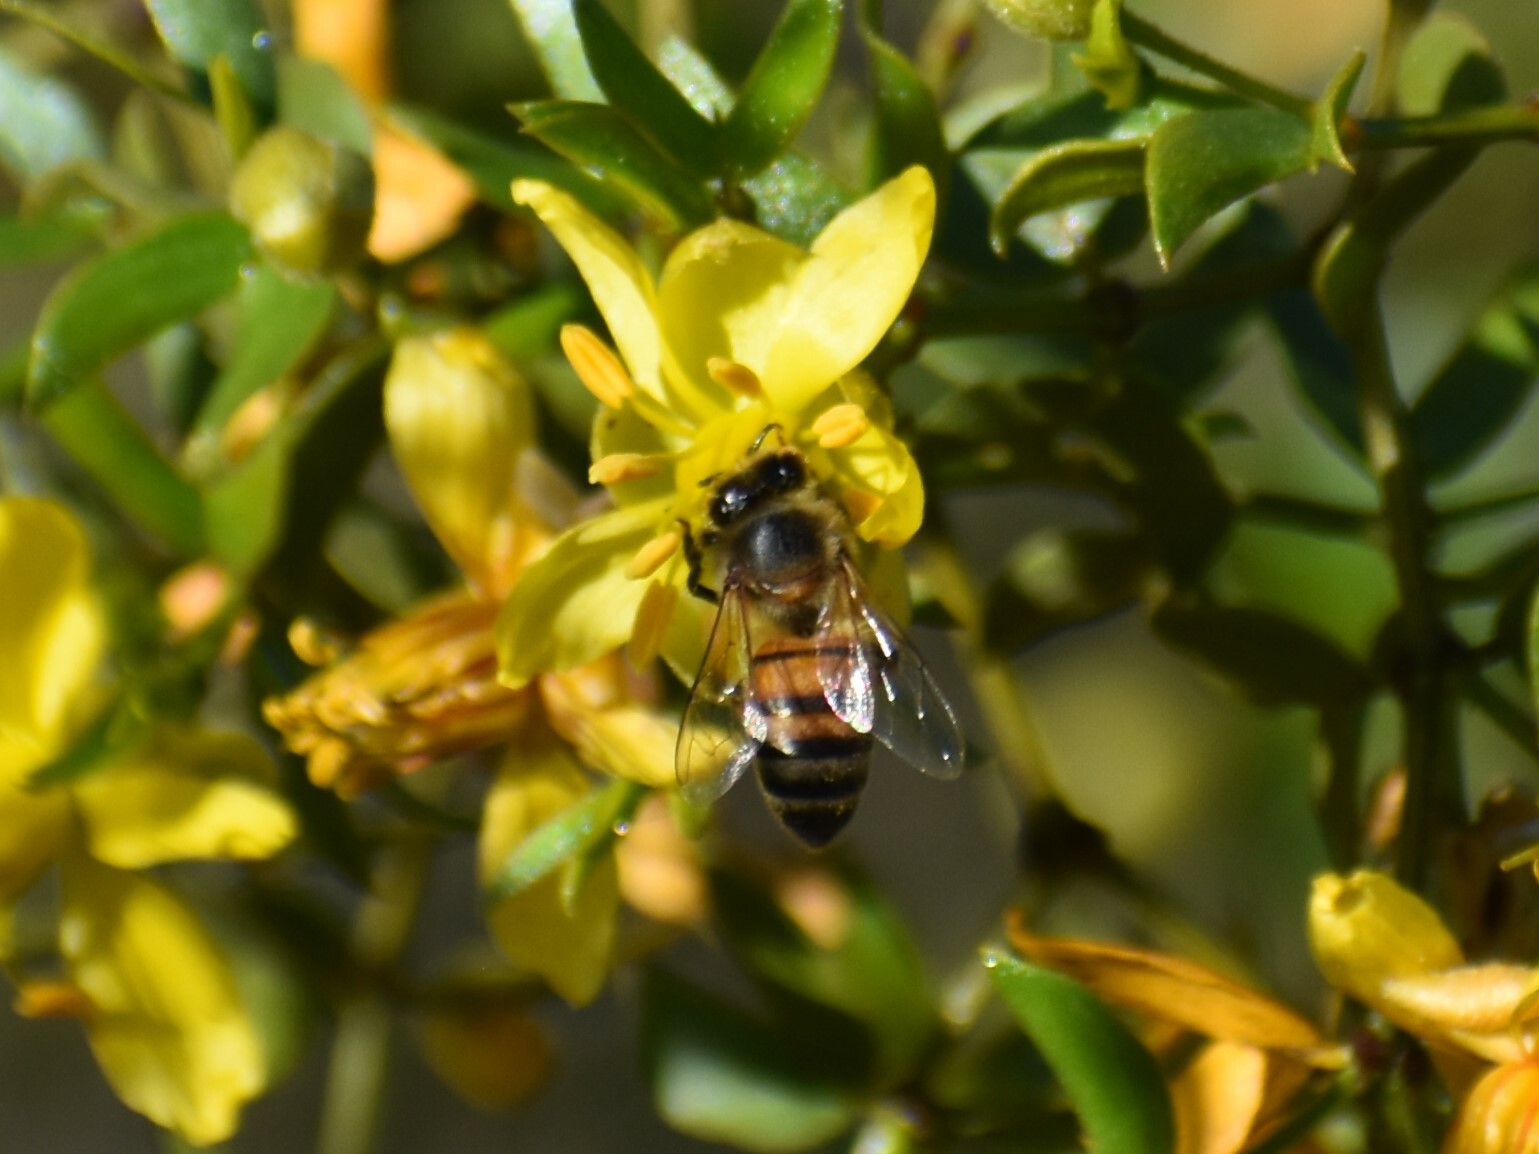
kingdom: Animalia
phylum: Arthropoda
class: Insecta
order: Hymenoptera
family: Apidae
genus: Apis
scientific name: Apis mellifera
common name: Honey bee
